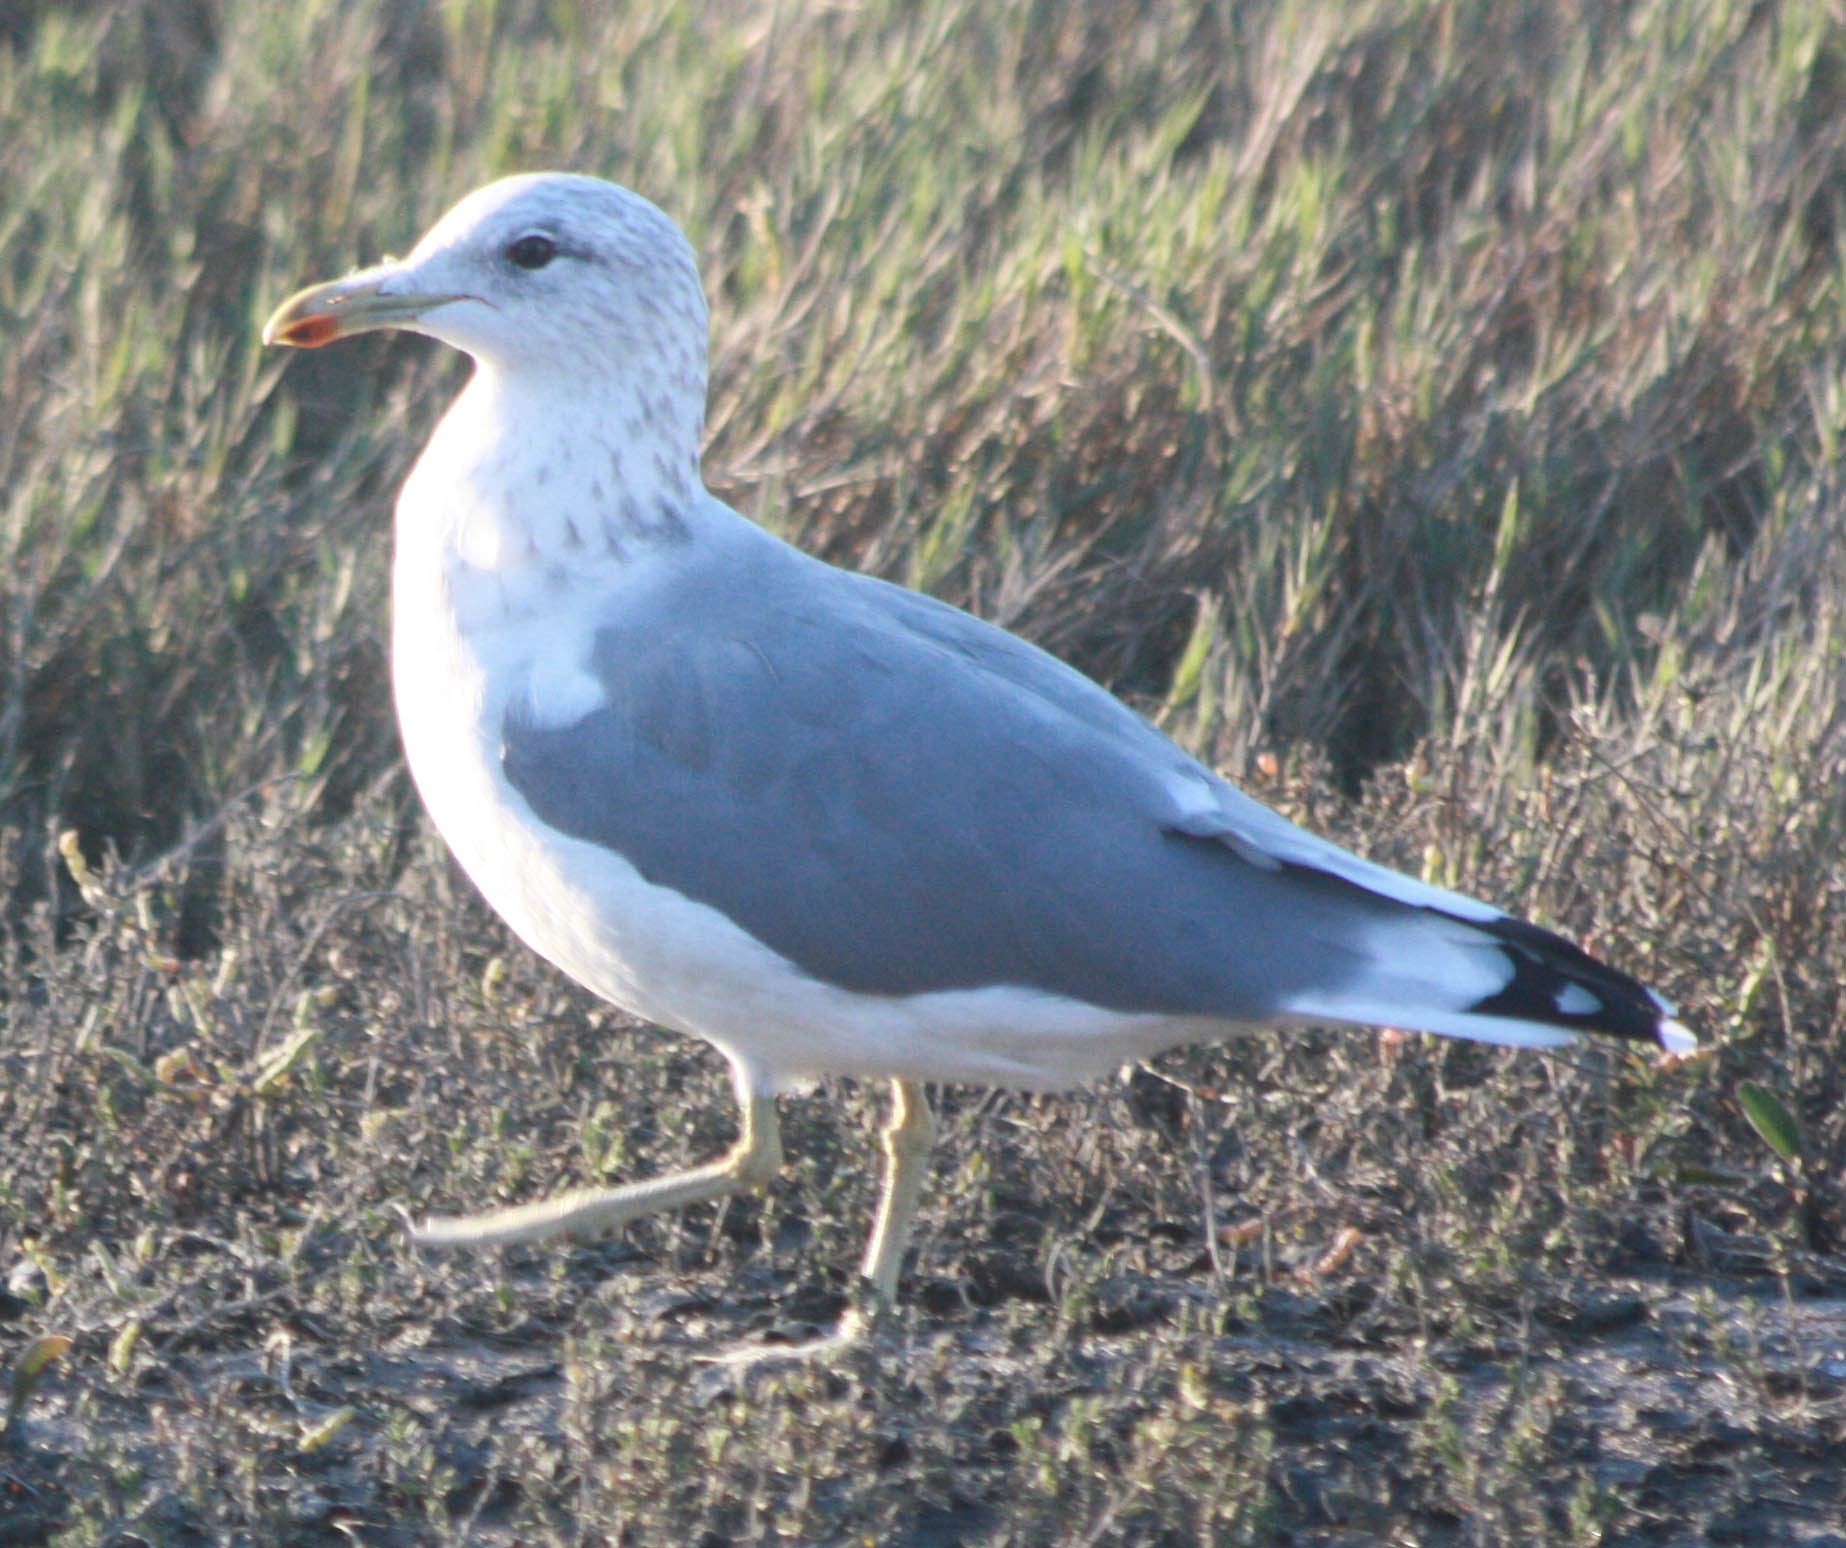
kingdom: Animalia
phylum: Chordata
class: Aves
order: Charadriiformes
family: Laridae
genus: Larus
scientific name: Larus californicus
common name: California gull
